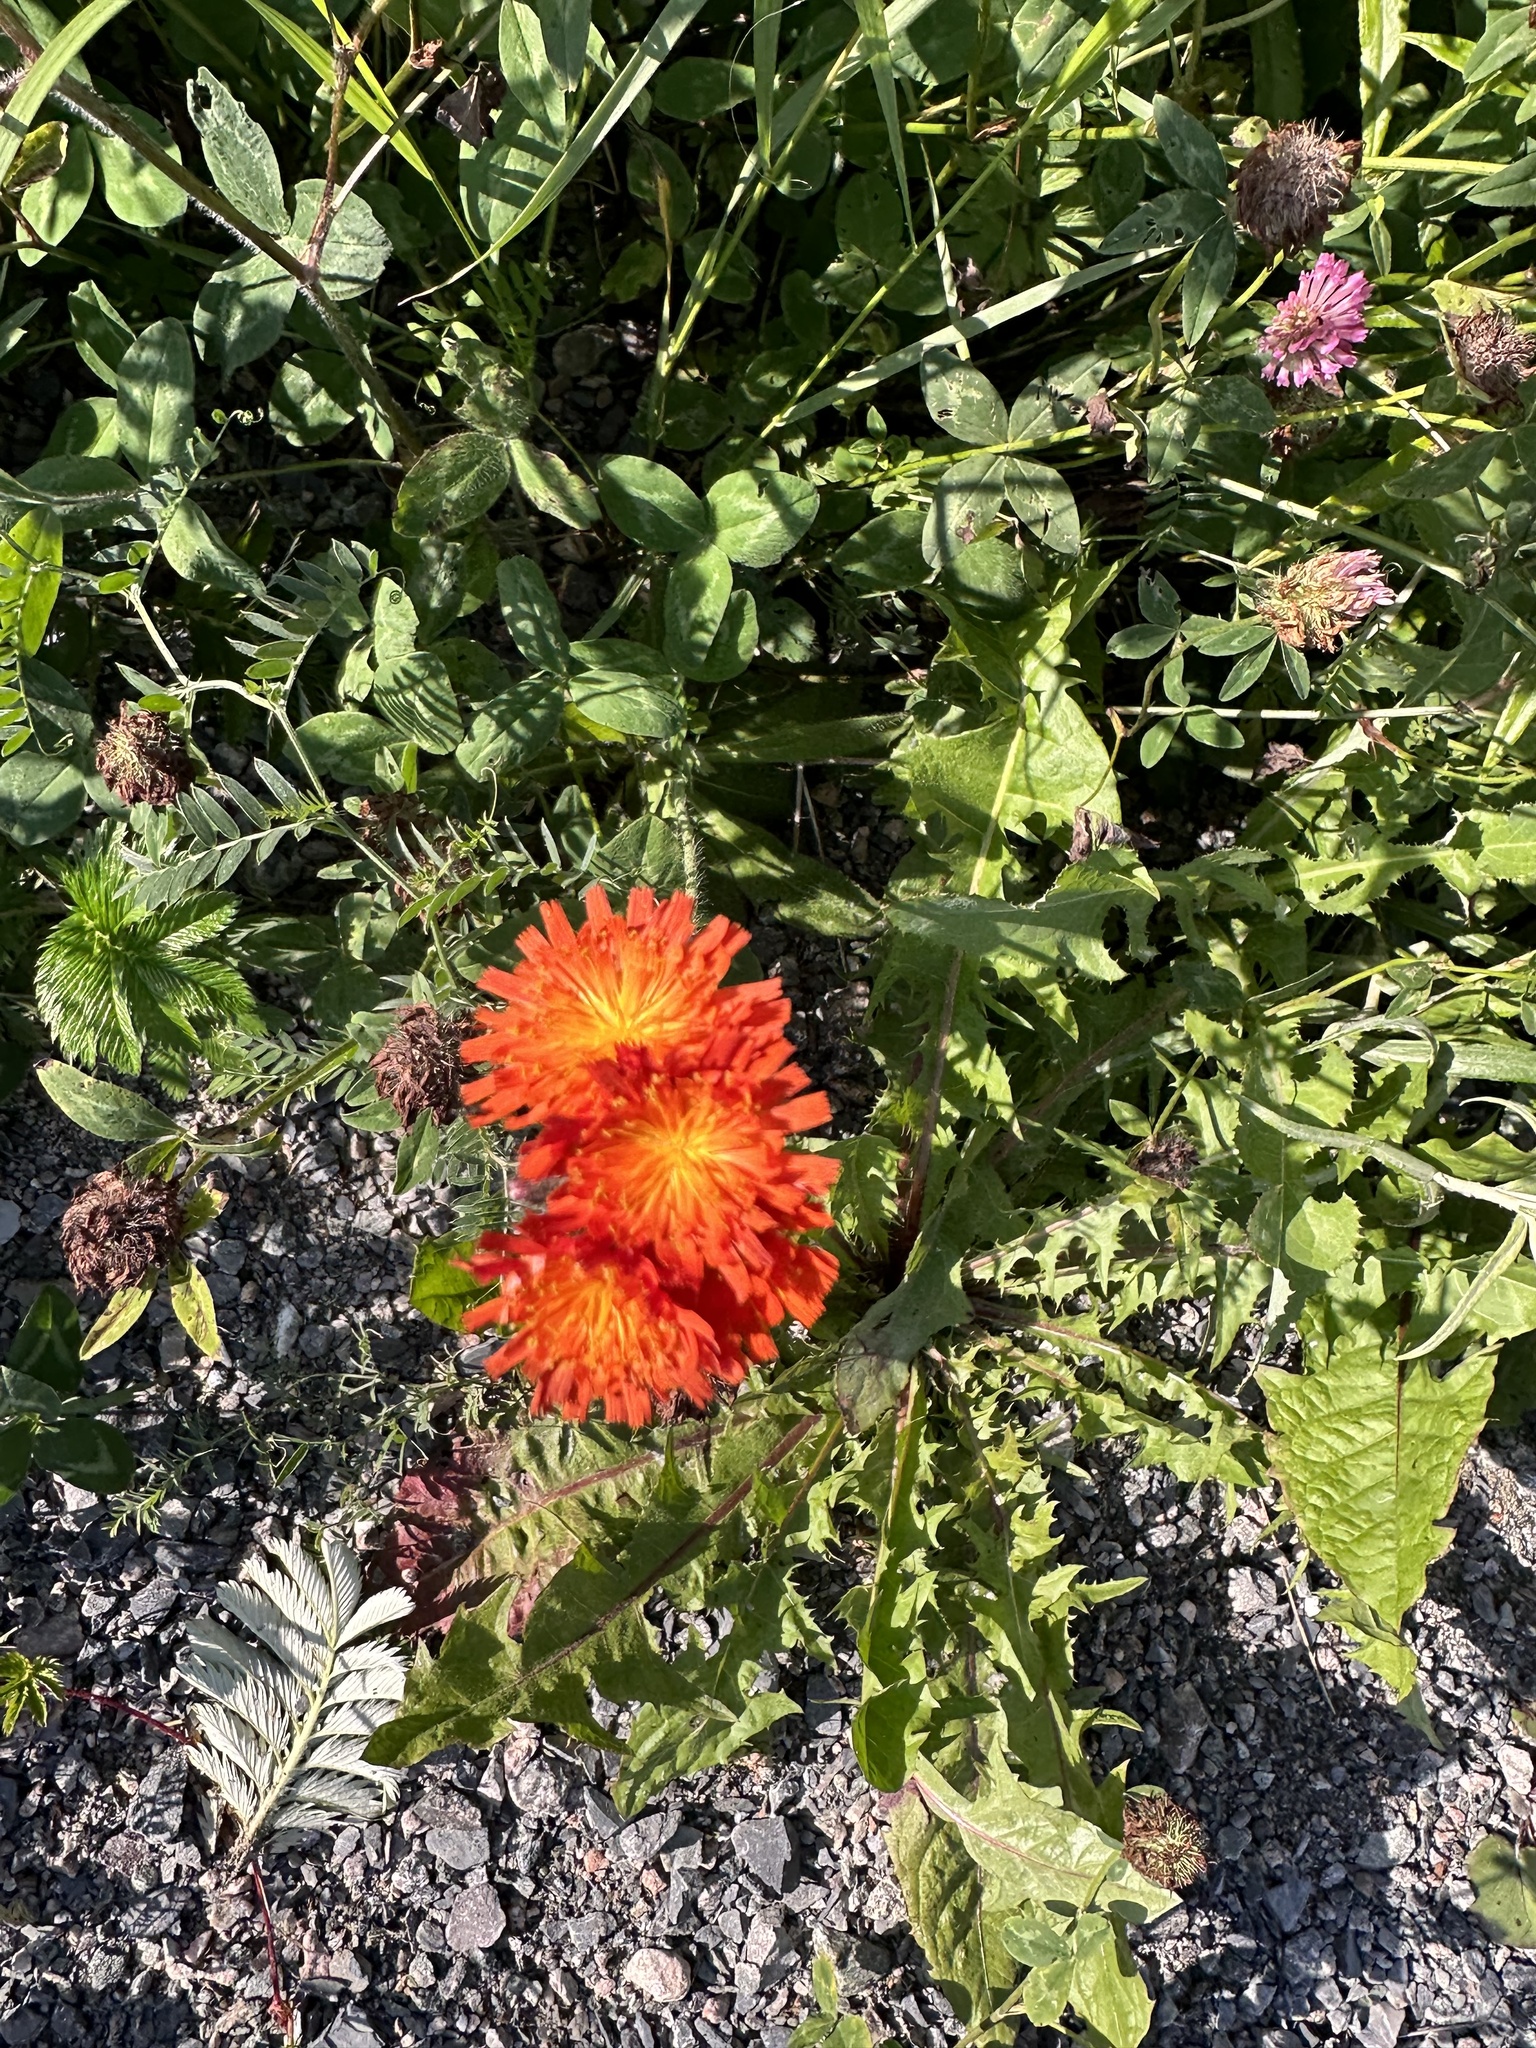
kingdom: Plantae
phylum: Tracheophyta
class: Magnoliopsida
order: Asterales
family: Asteraceae
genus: Pilosella
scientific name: Pilosella aurantiaca
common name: Fox-and-cubs
